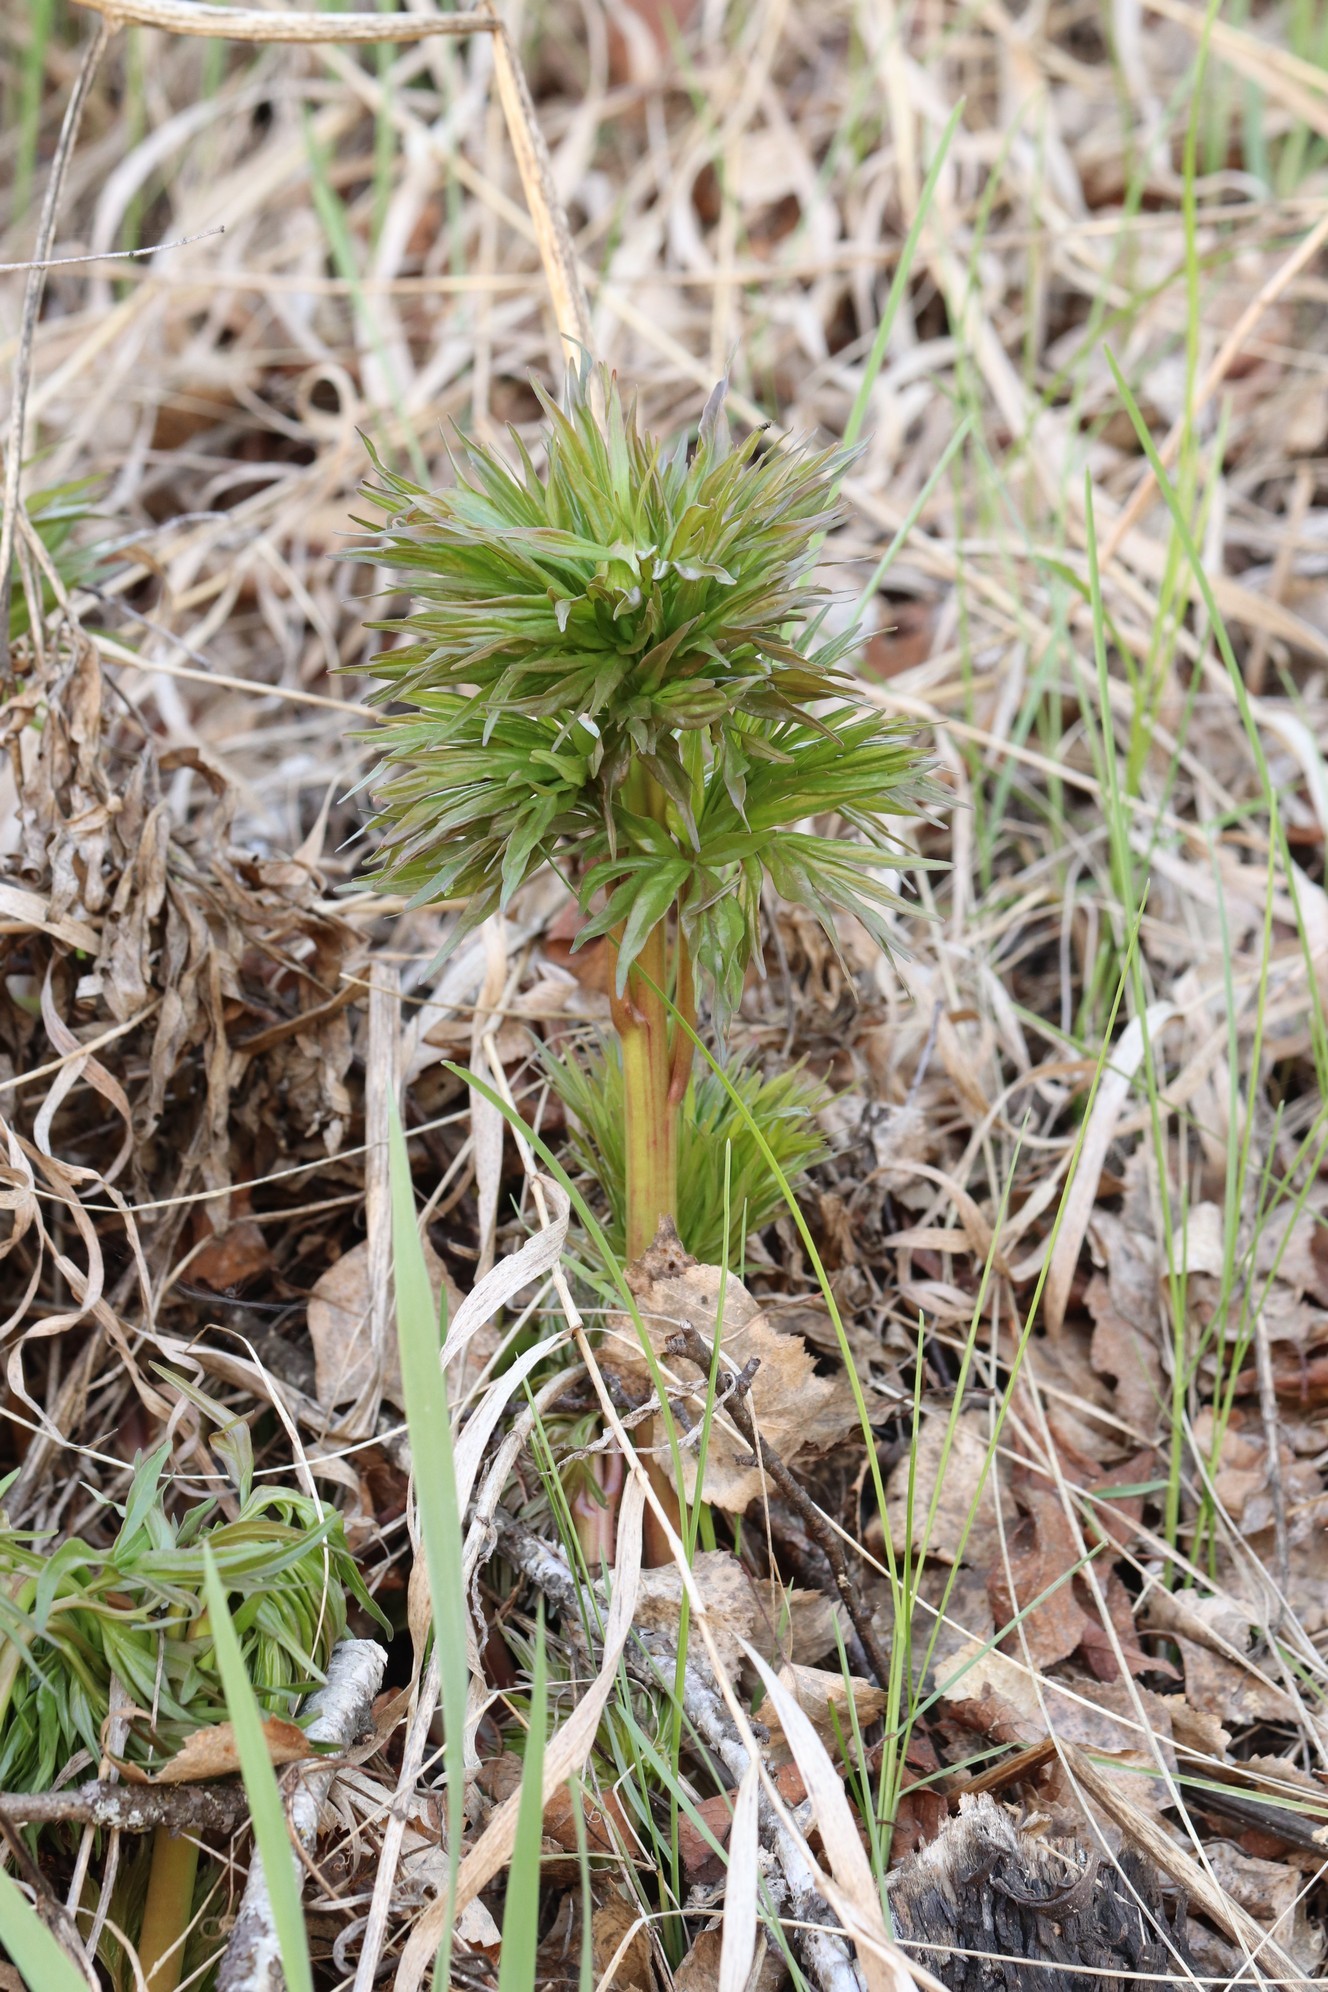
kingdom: Plantae
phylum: Tracheophyta
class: Magnoliopsida
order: Saxifragales
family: Paeoniaceae
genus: Paeonia
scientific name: Paeonia anomala
